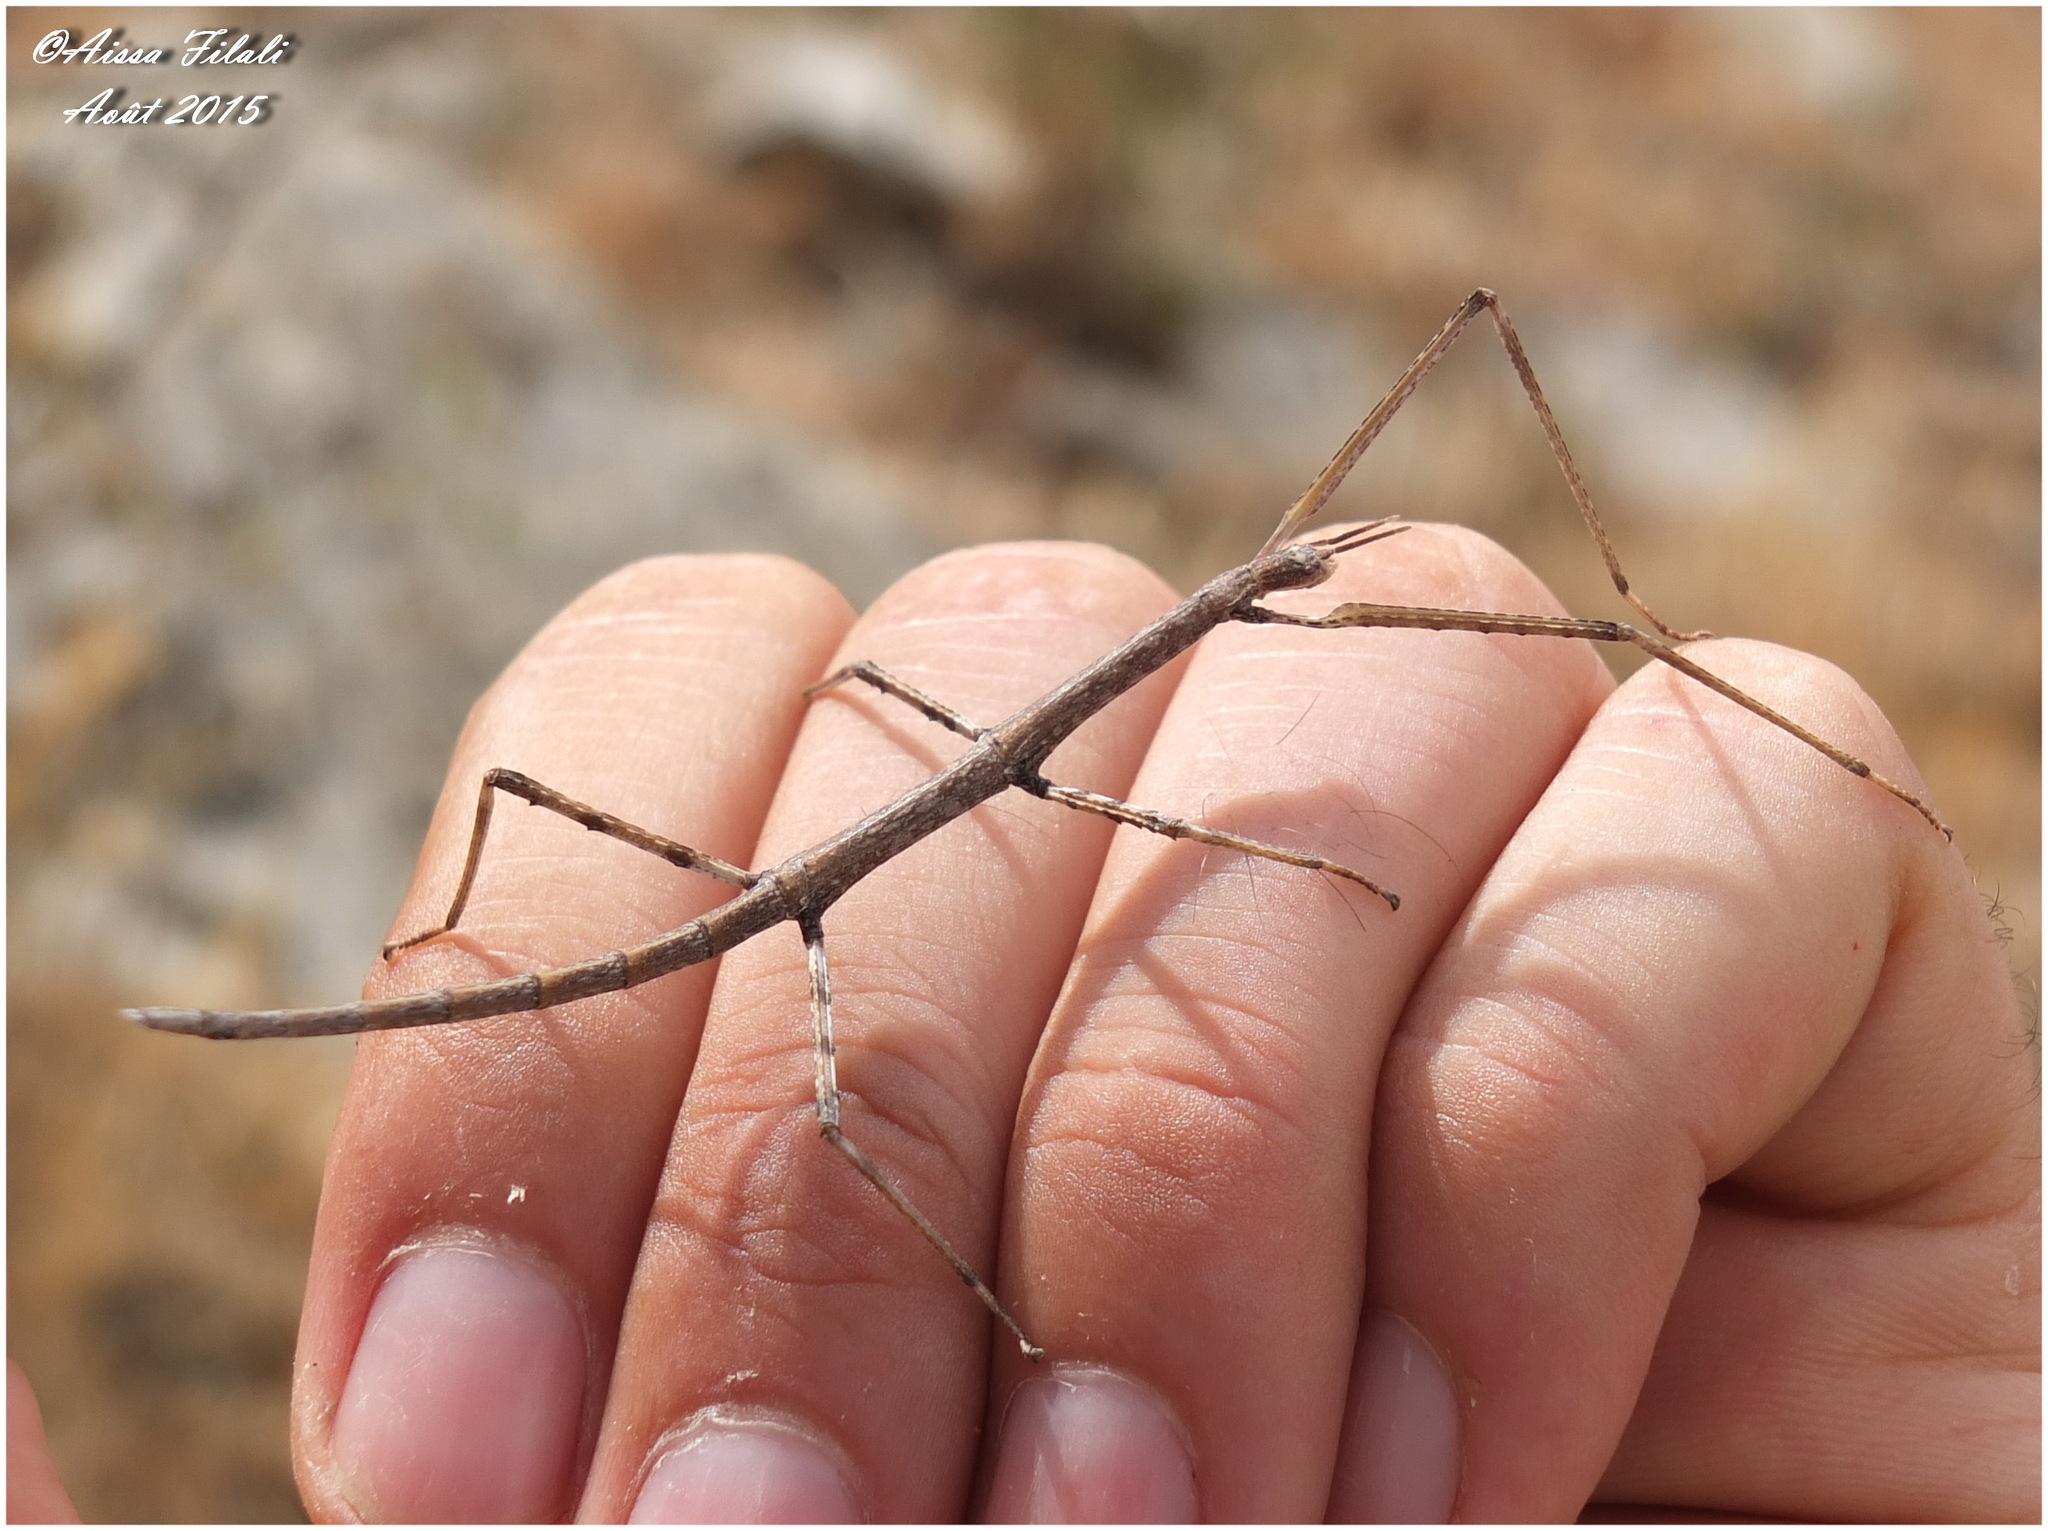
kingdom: Animalia
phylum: Arthropoda
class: Insecta
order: Phasmida
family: Bacillidae
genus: Bacillus
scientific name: Bacillus rossius
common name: Corsican stick-insect
